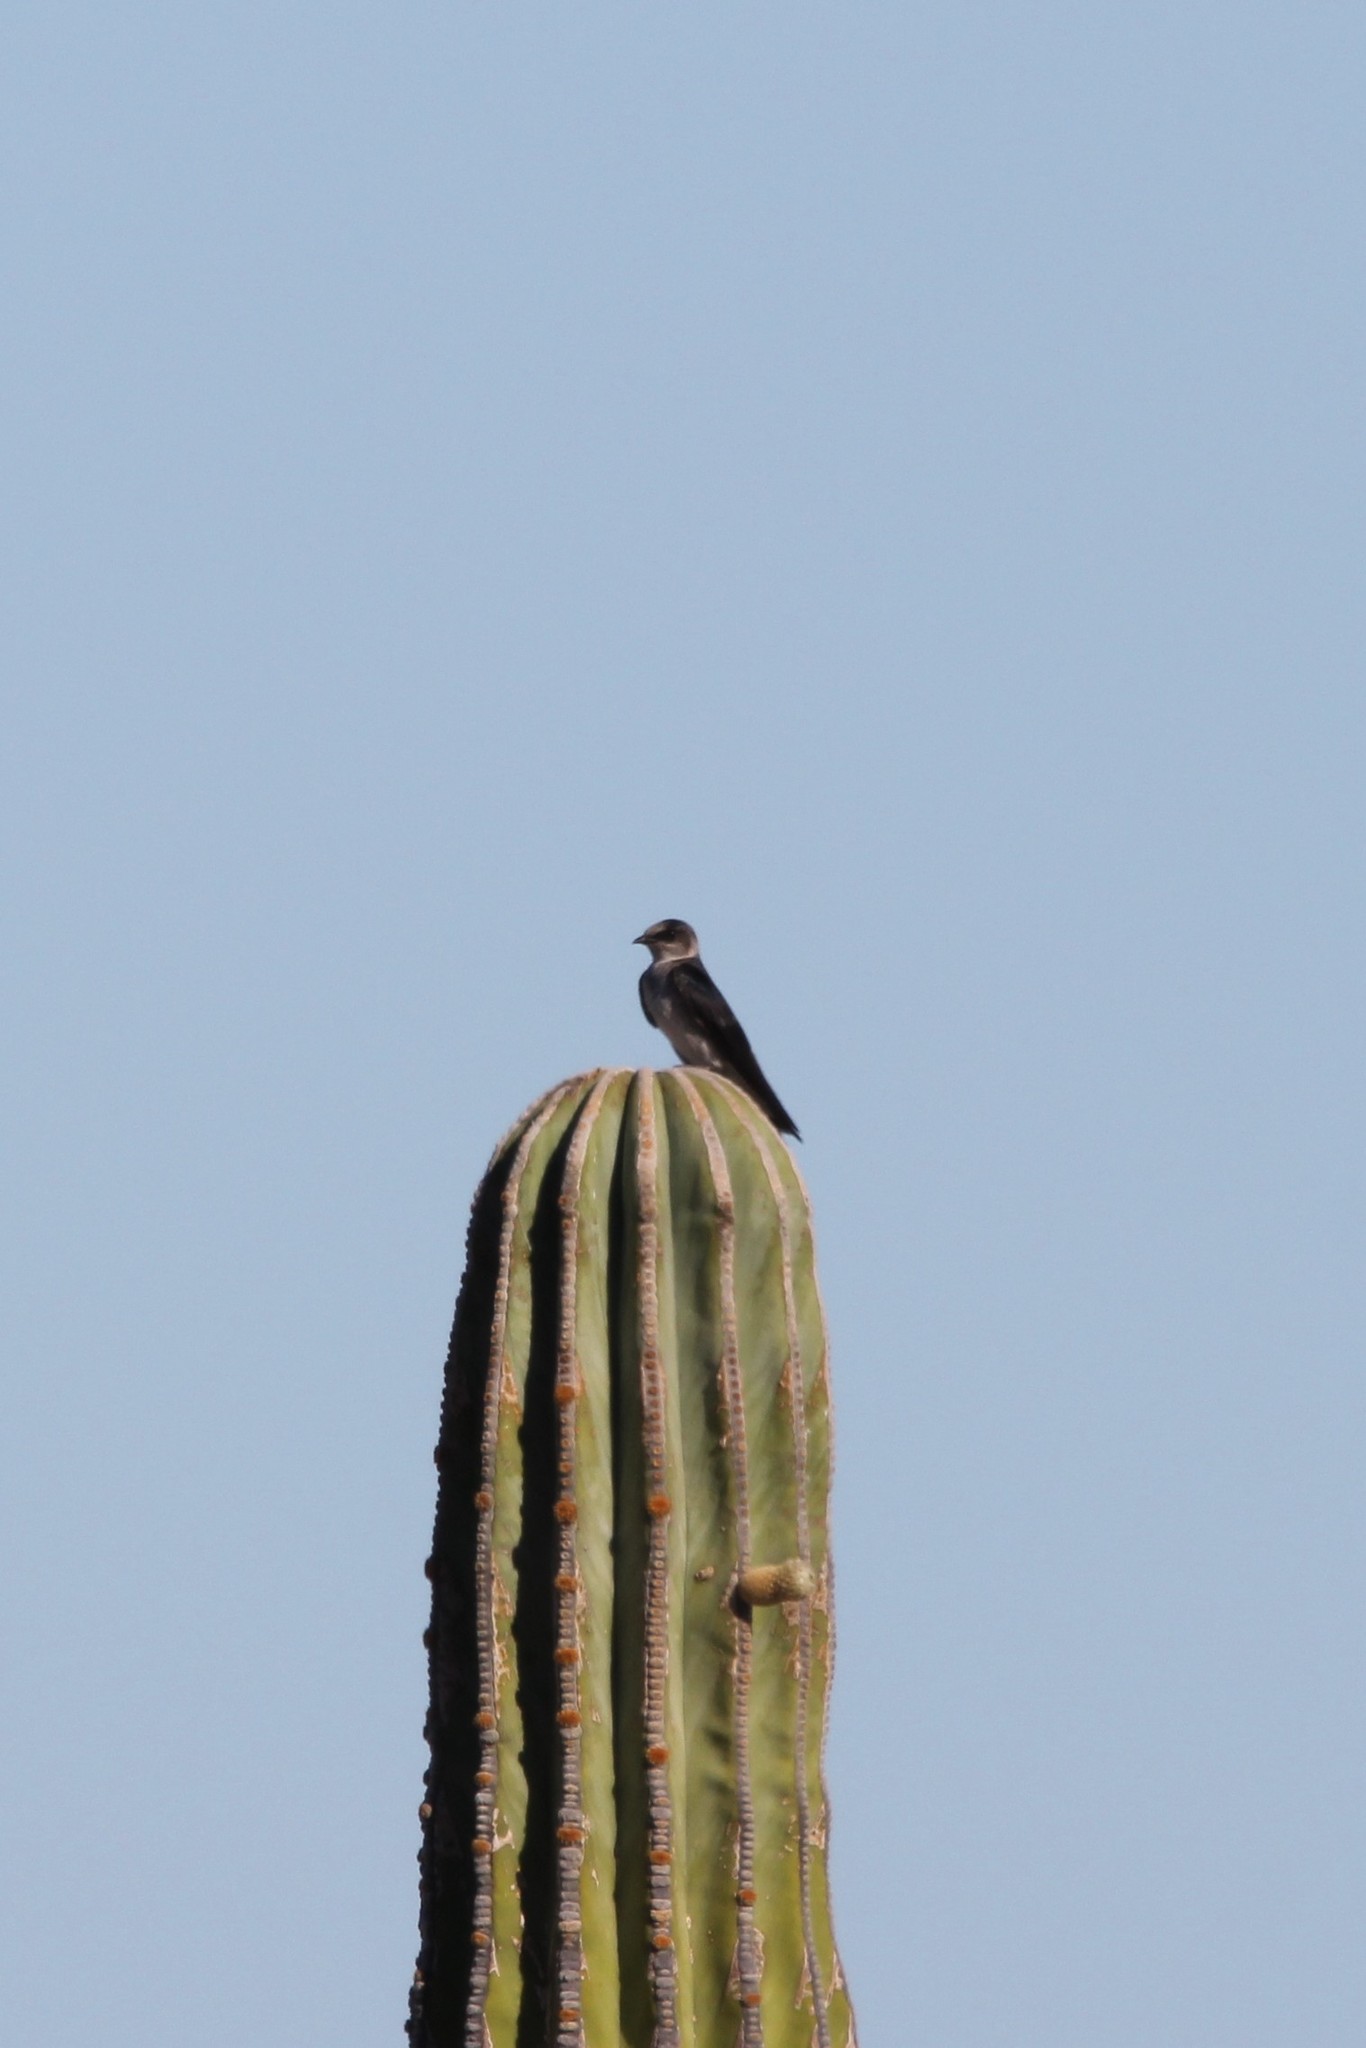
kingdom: Animalia
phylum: Chordata
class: Aves
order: Passeriformes
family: Hirundinidae
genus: Progne
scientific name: Progne subis
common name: Purple martin
